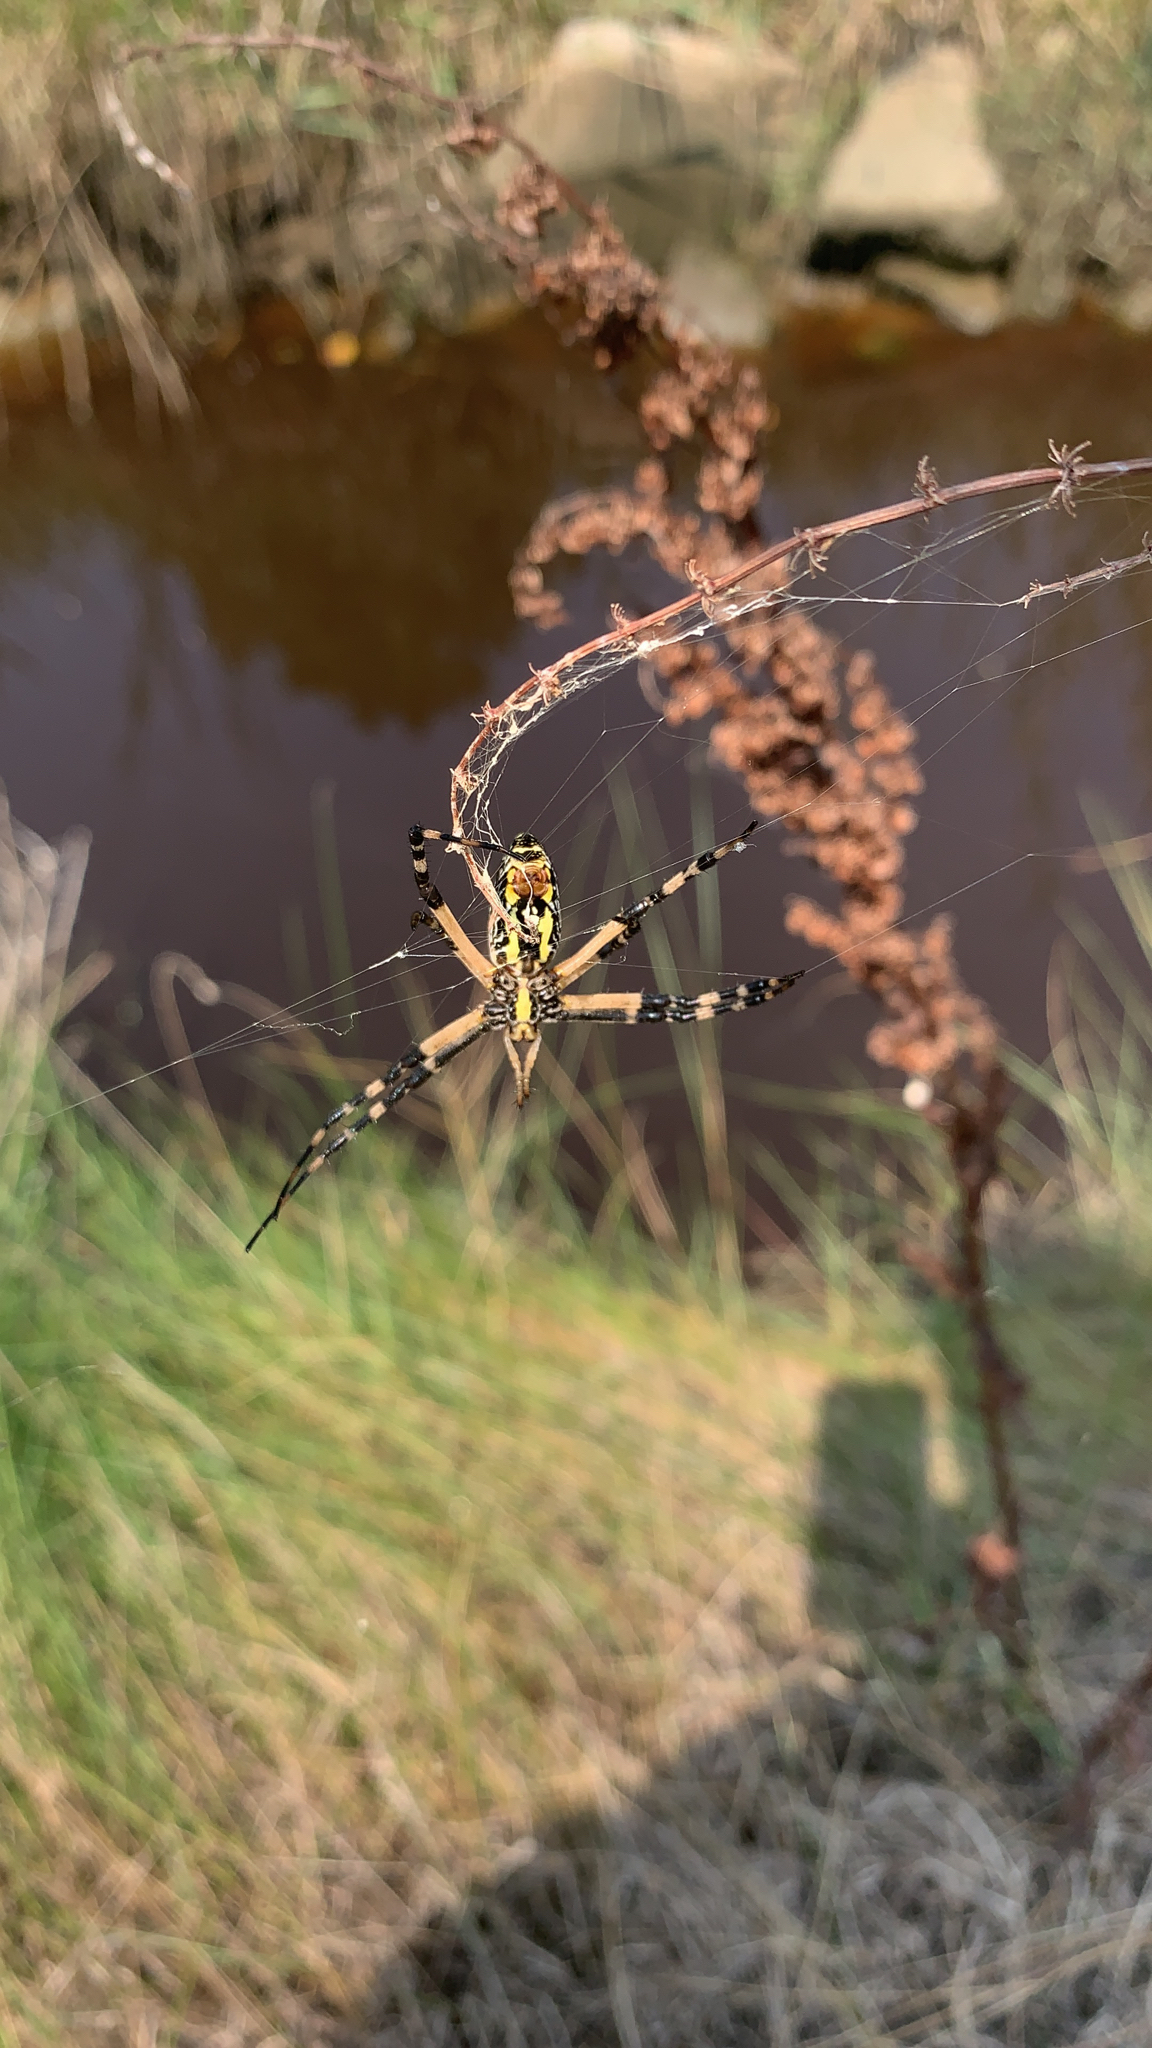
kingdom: Animalia
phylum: Arthropoda
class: Arachnida
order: Araneae
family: Araneidae
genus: Argiope
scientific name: Argiope aurantia
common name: Orb weavers
